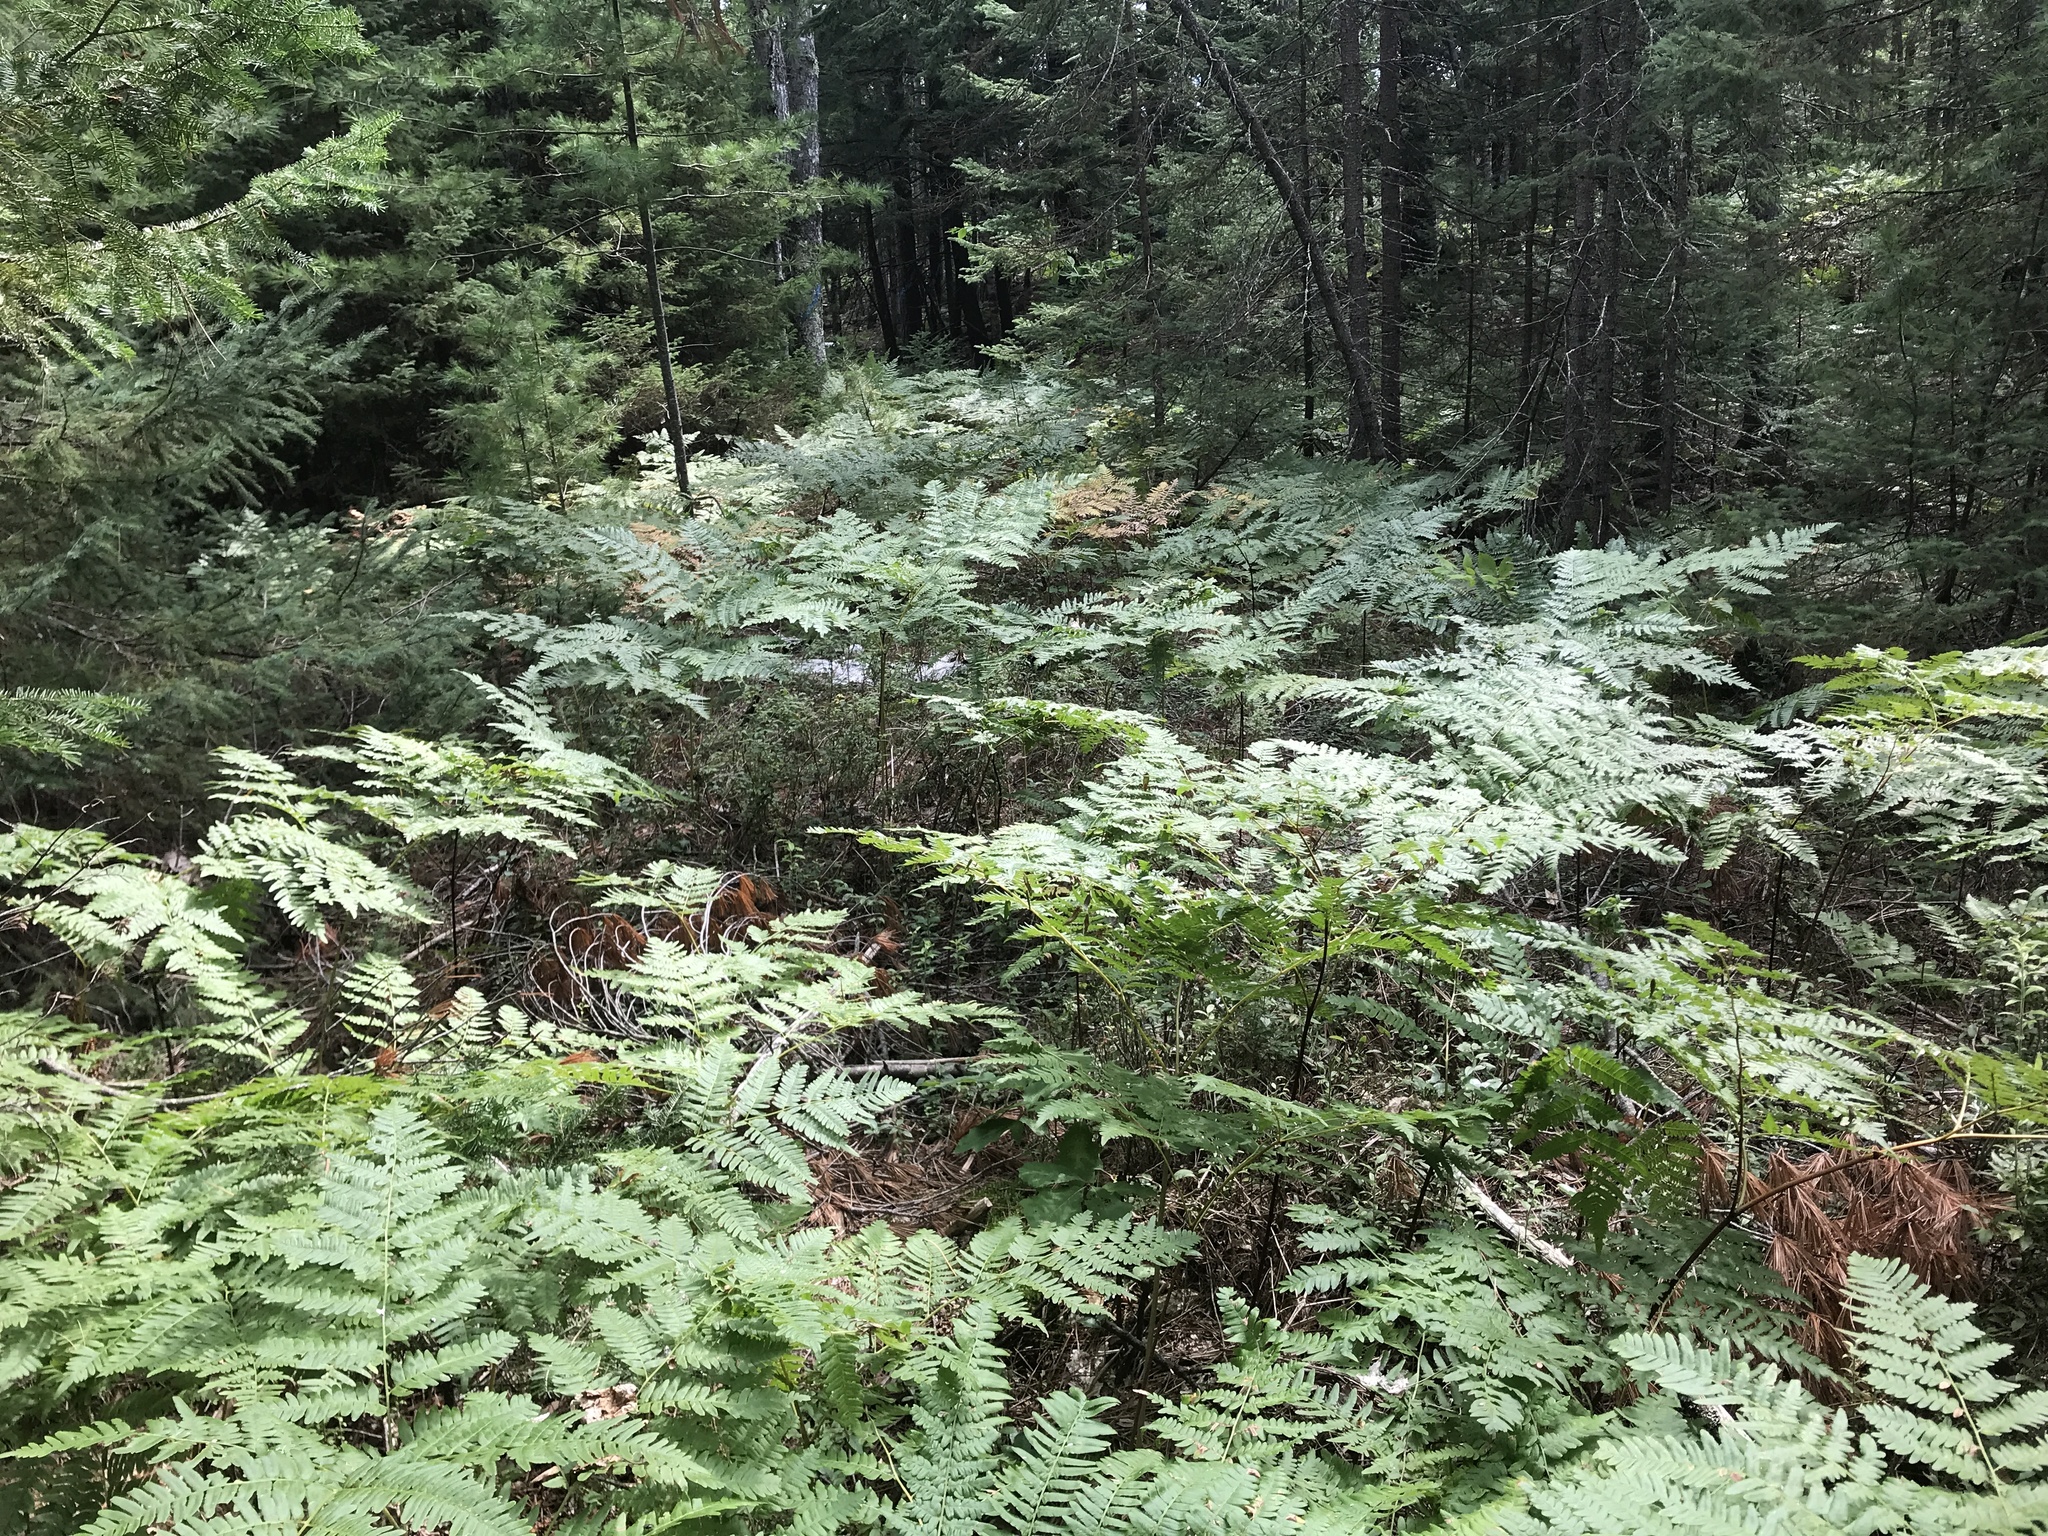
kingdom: Plantae
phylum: Tracheophyta
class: Polypodiopsida
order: Polypodiales
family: Dennstaedtiaceae
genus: Pteridium
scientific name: Pteridium aquilinum
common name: Bracken
